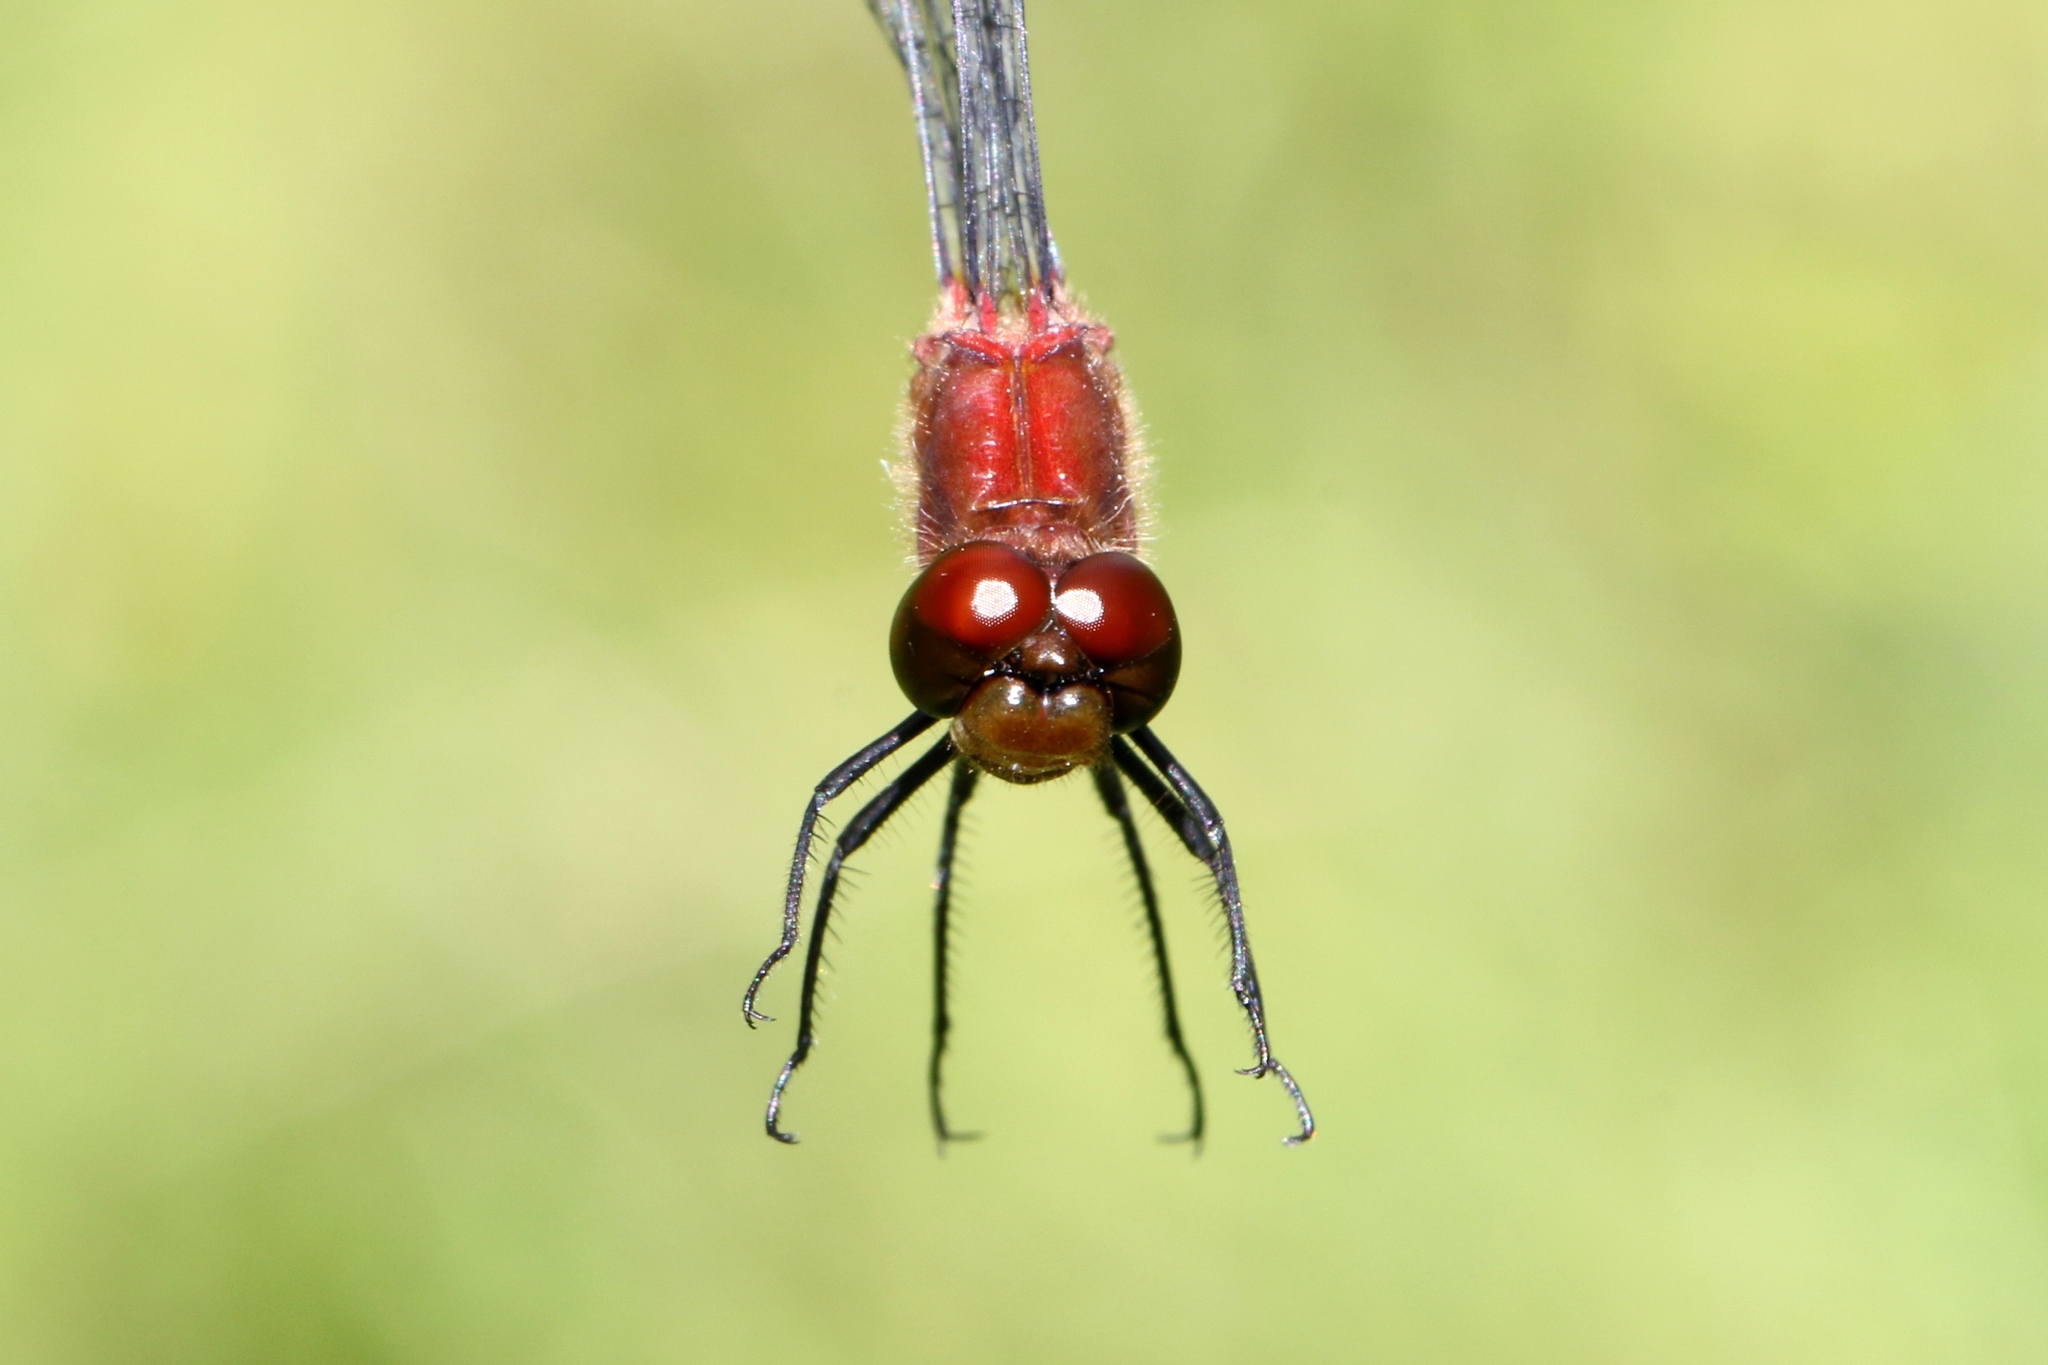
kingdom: Animalia
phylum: Arthropoda
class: Insecta
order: Odonata
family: Libellulidae
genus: Sympetrum
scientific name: Sympetrum internum
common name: Cherry-faced meadowhawk
